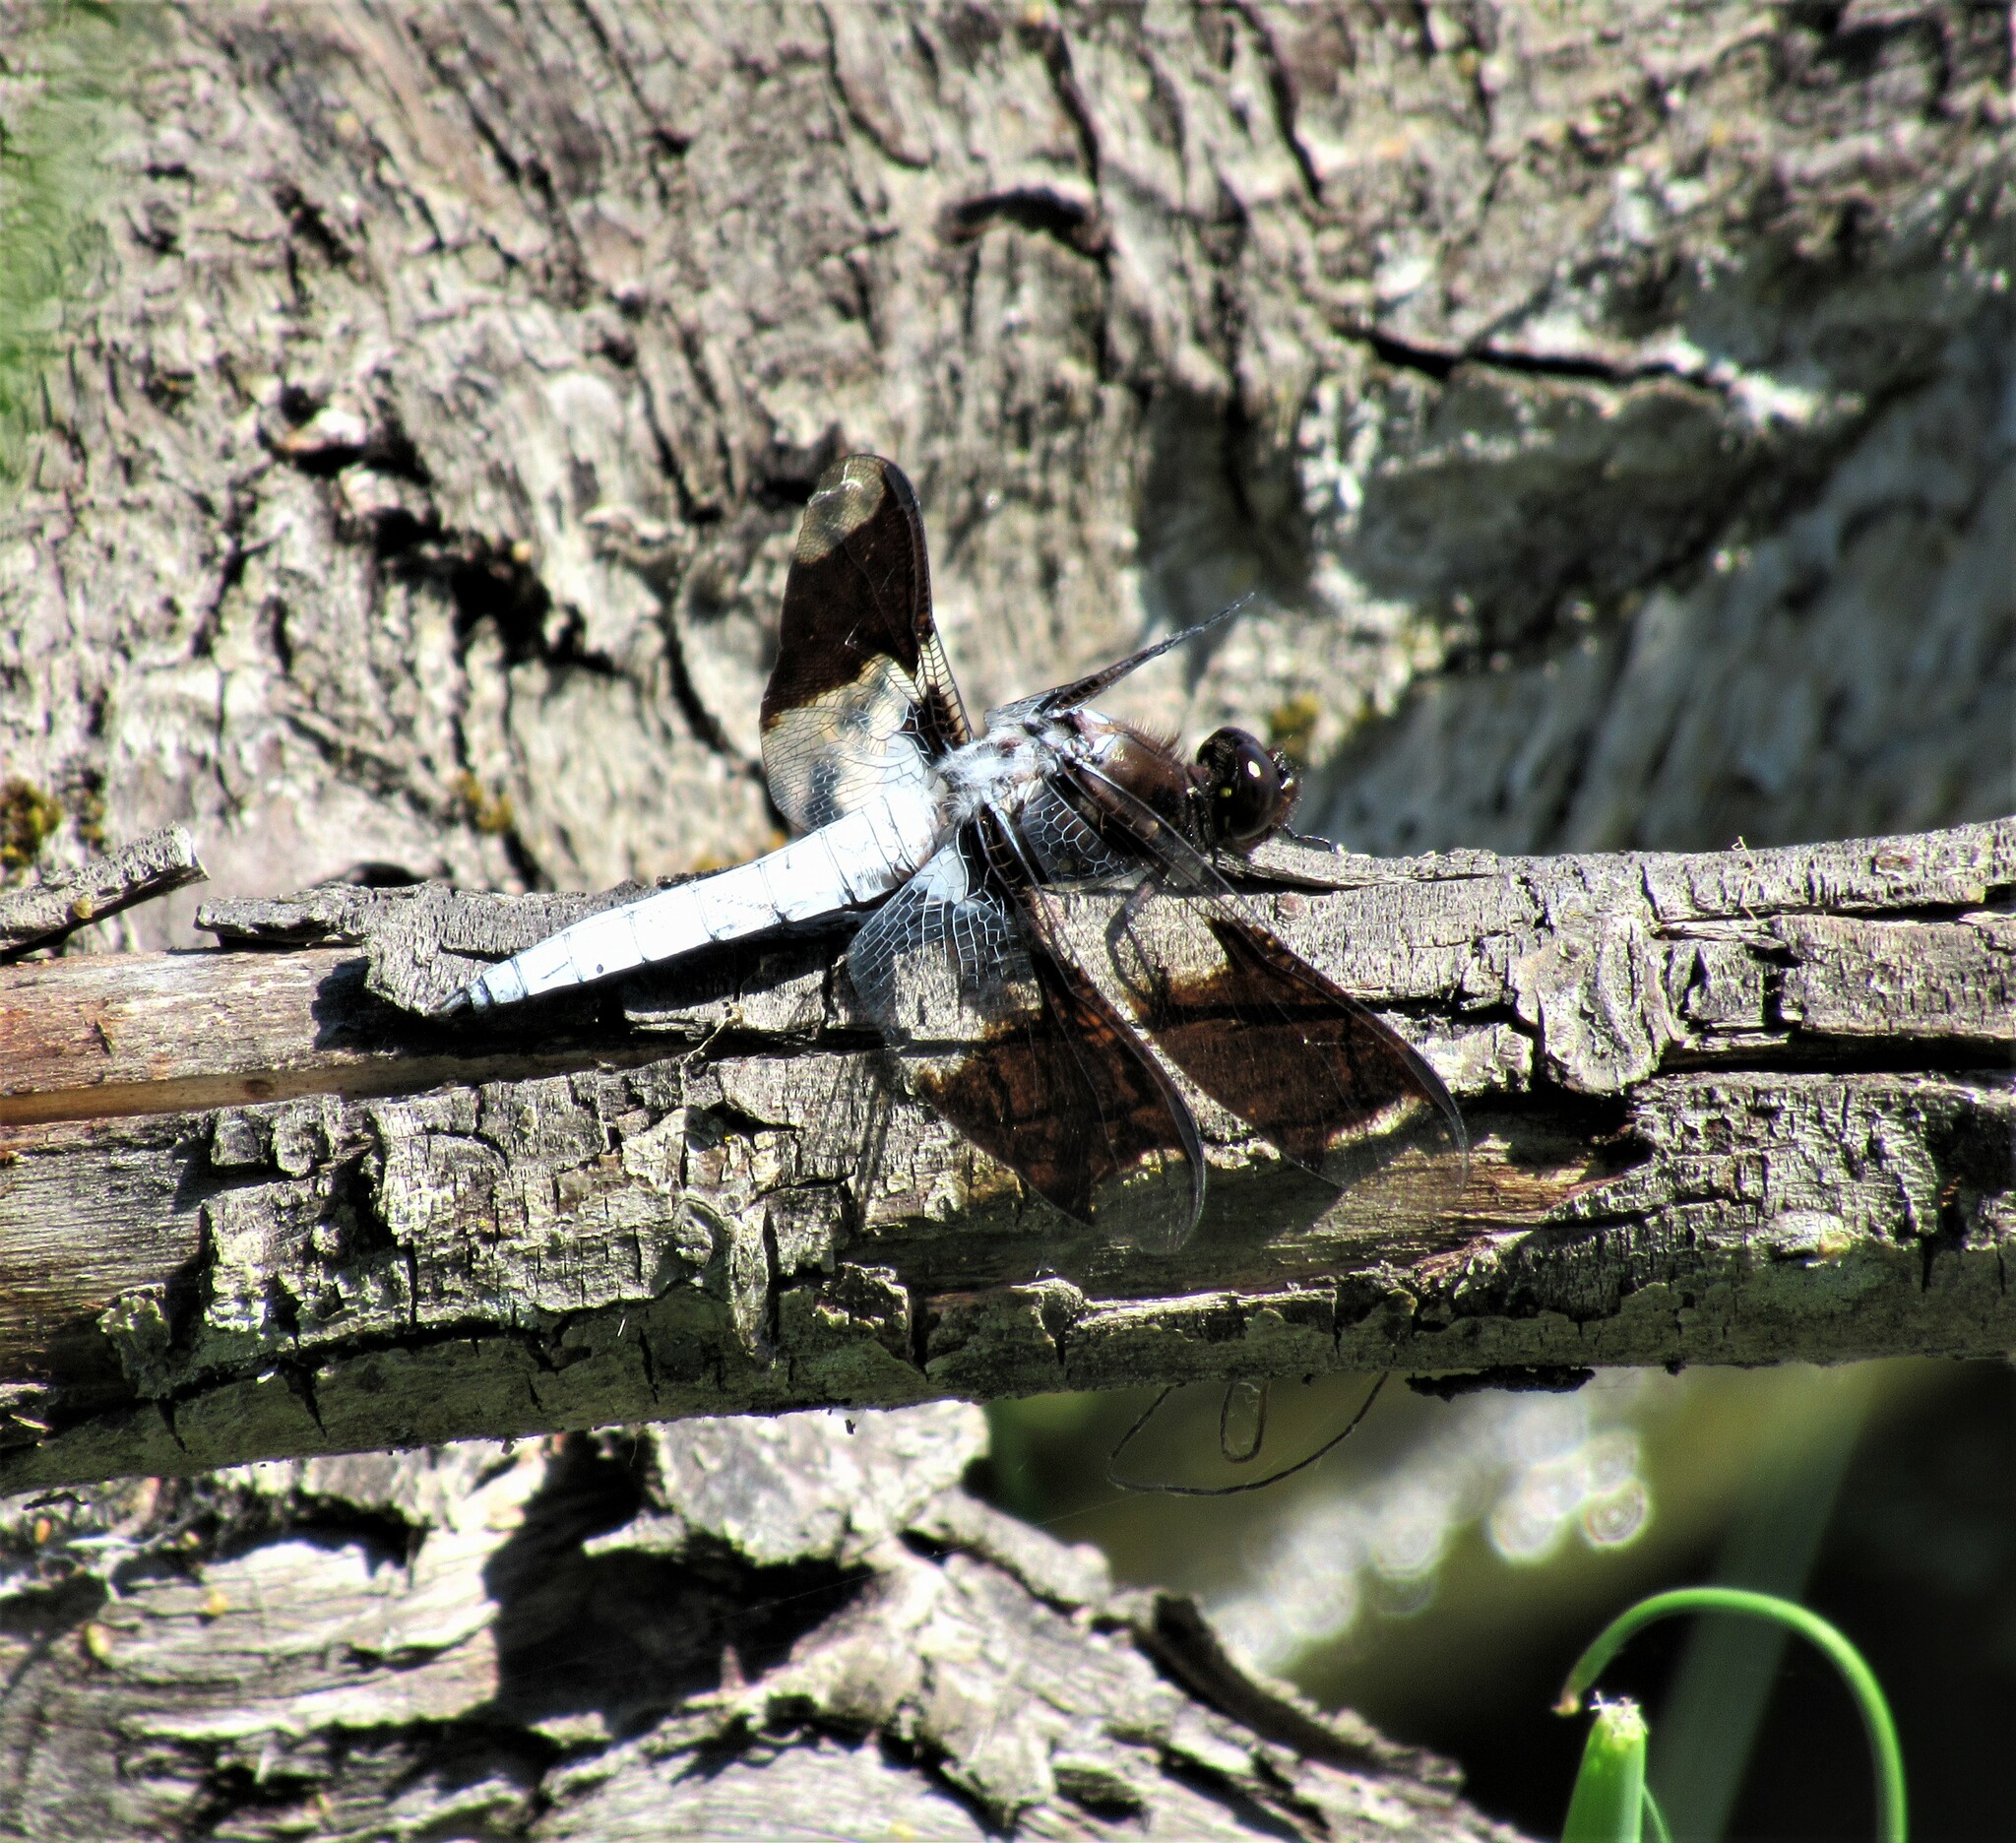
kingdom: Animalia
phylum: Arthropoda
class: Insecta
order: Odonata
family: Libellulidae
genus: Plathemis
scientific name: Plathemis lydia
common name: Common whitetail
